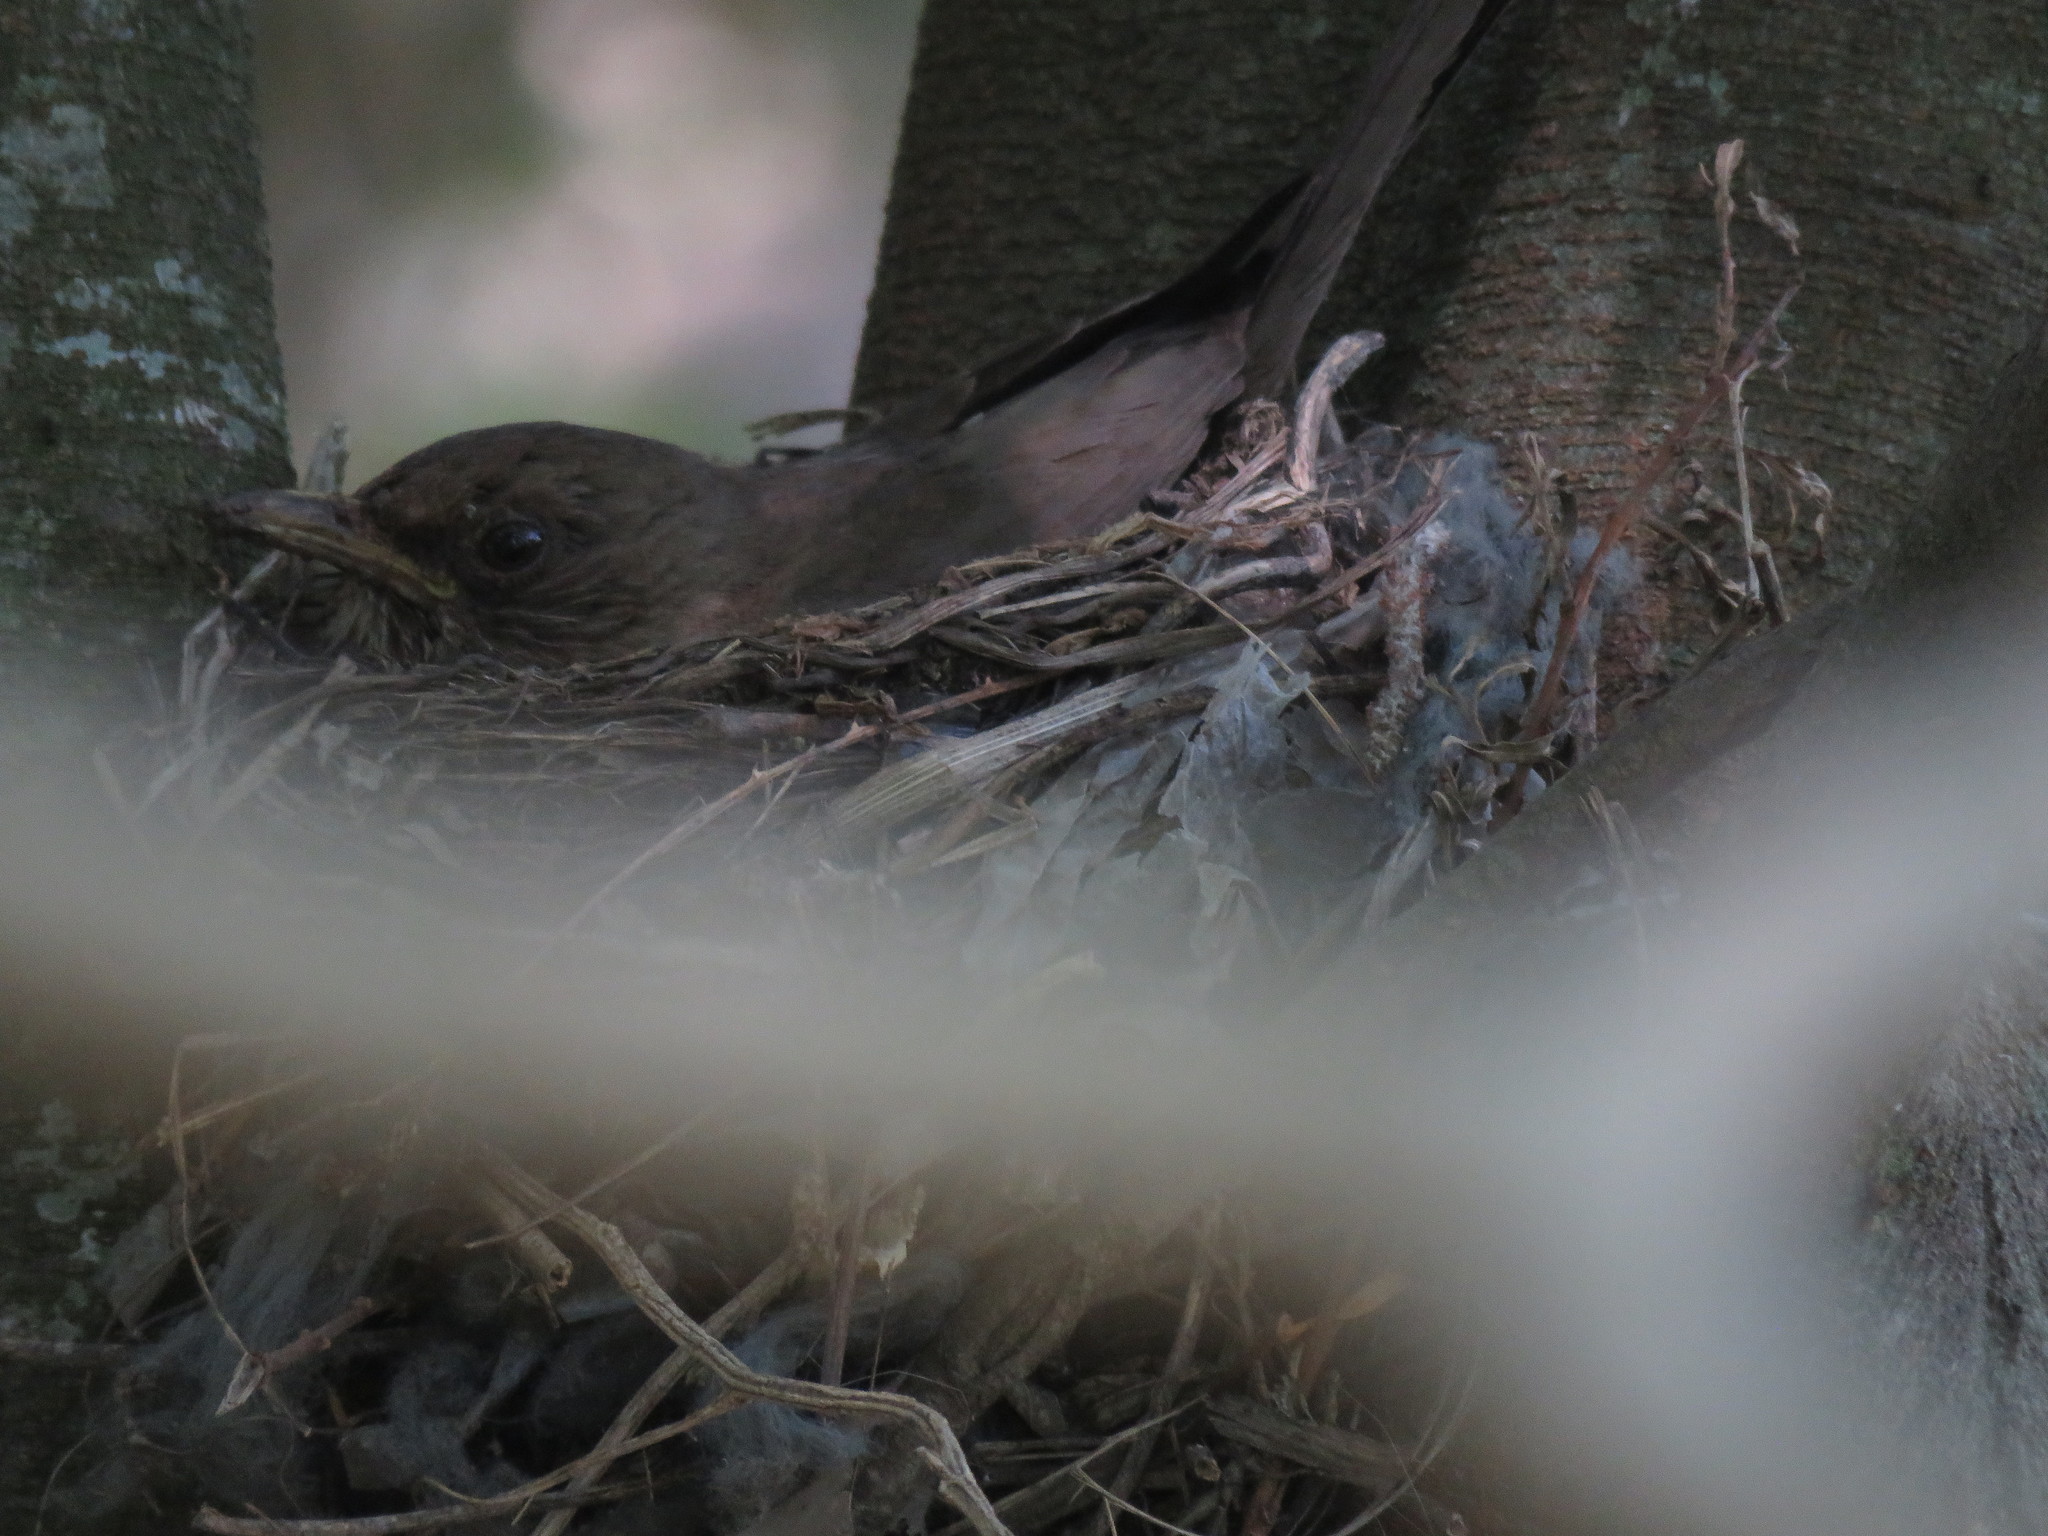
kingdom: Animalia
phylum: Chordata
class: Aves
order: Passeriformes
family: Turdidae
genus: Turdus
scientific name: Turdus rufiventris
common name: Rufous-bellied thrush
